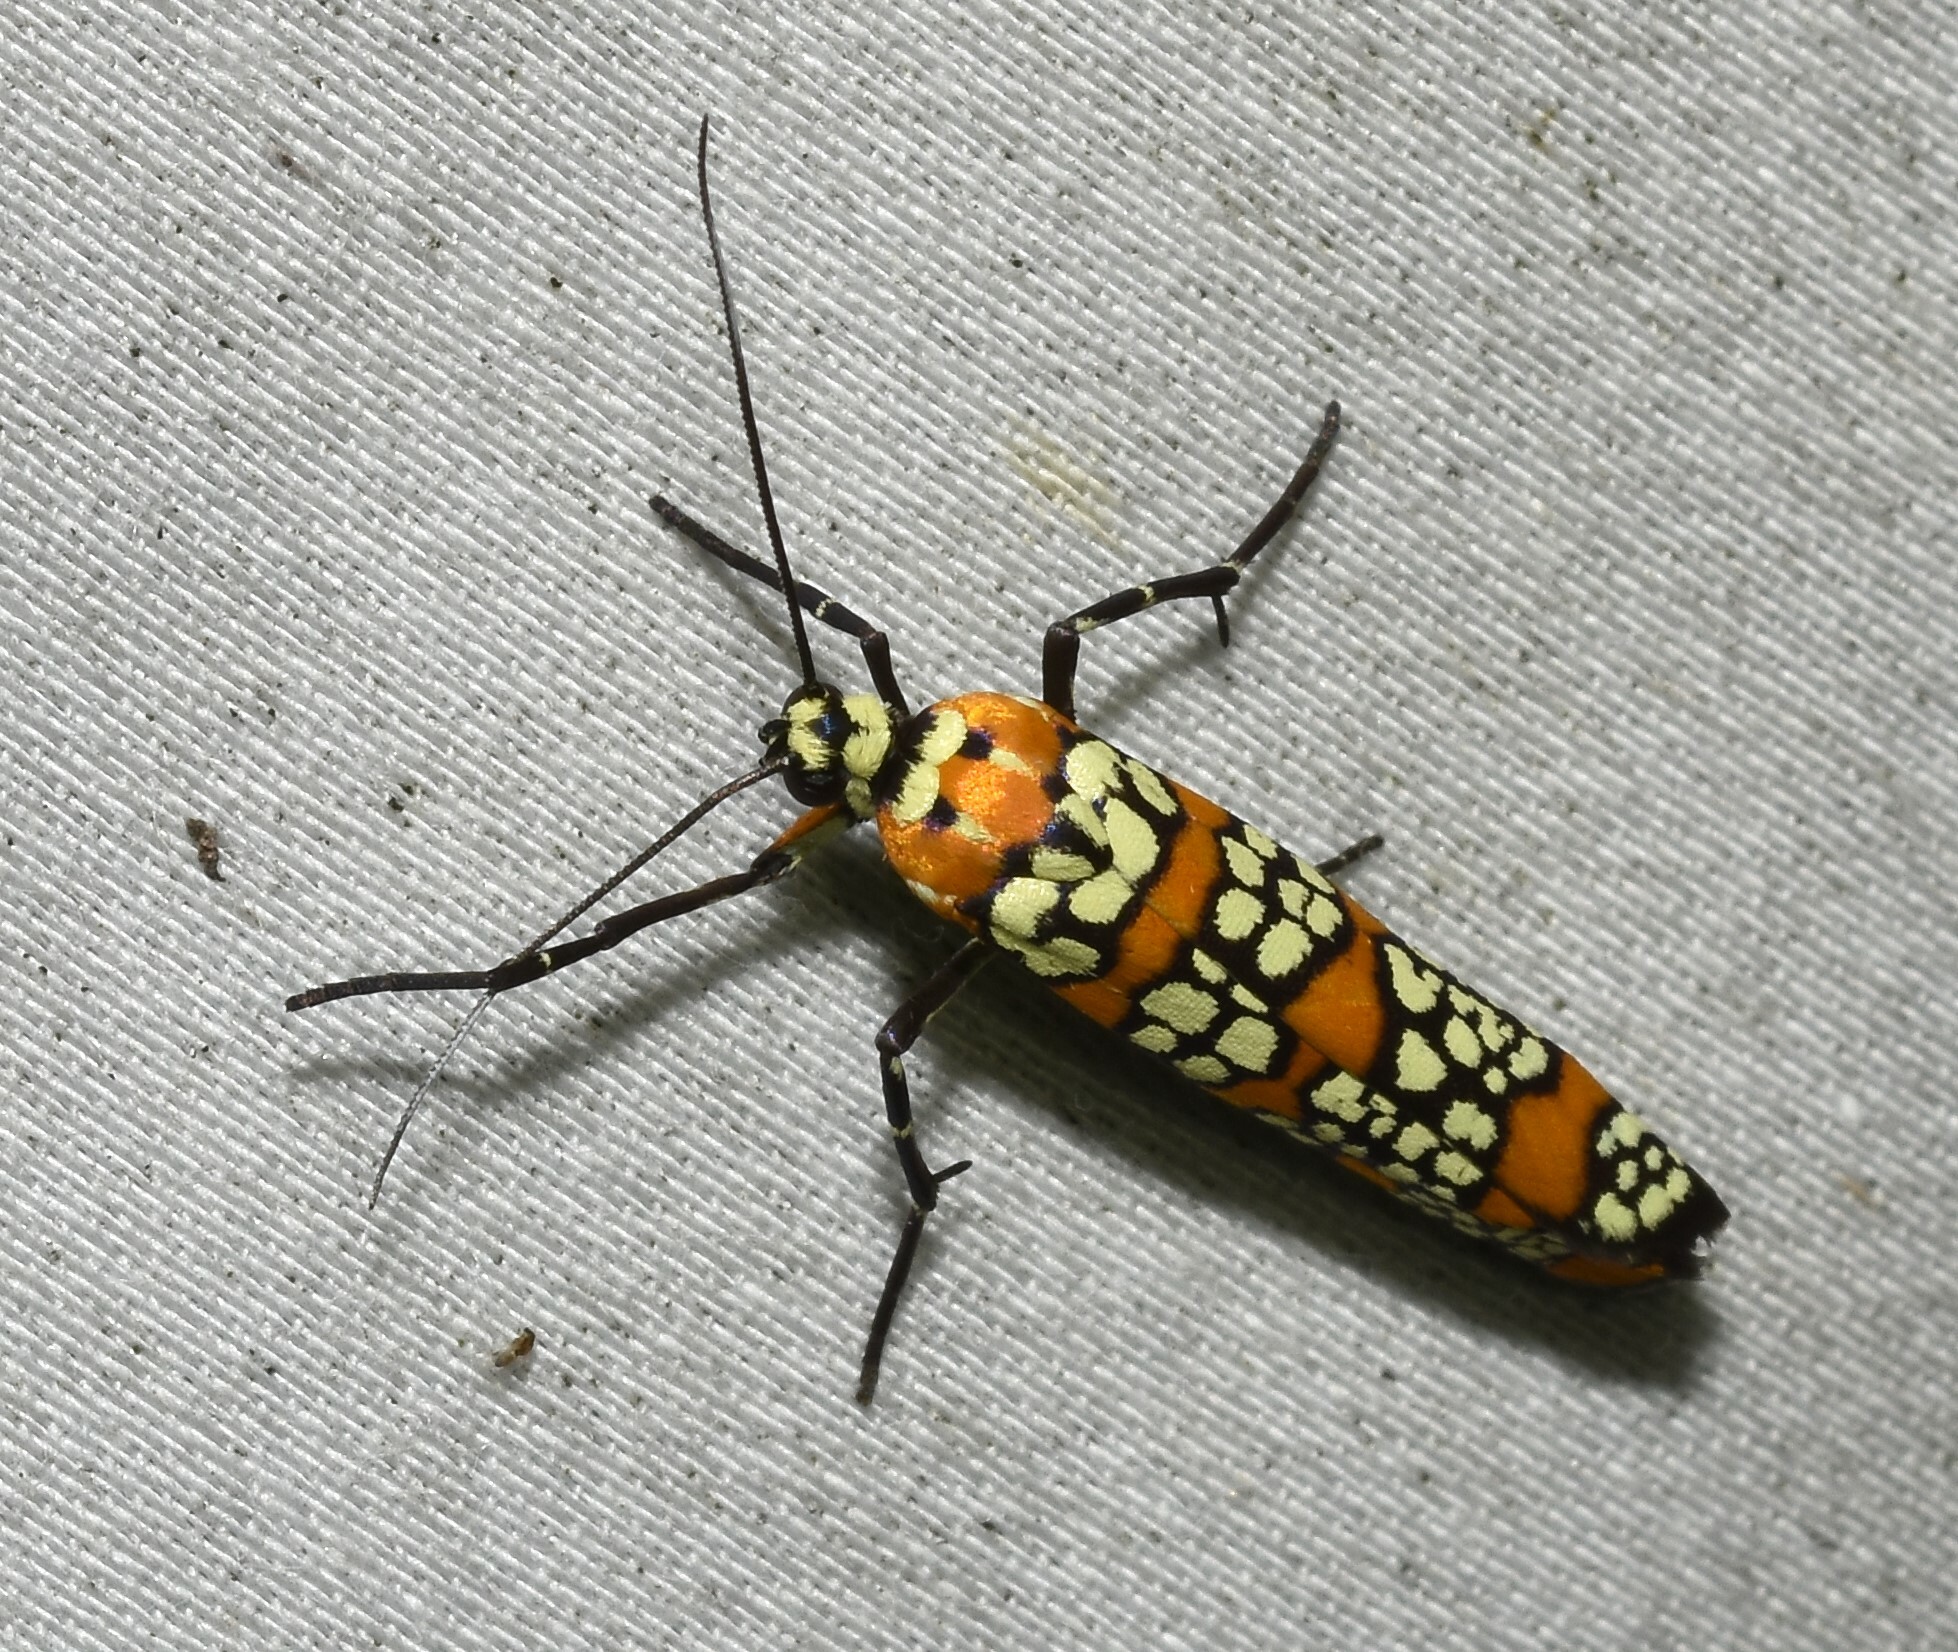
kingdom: Animalia
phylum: Arthropoda
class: Insecta
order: Lepidoptera
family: Attevidae
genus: Atteva
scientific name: Atteva punctella
